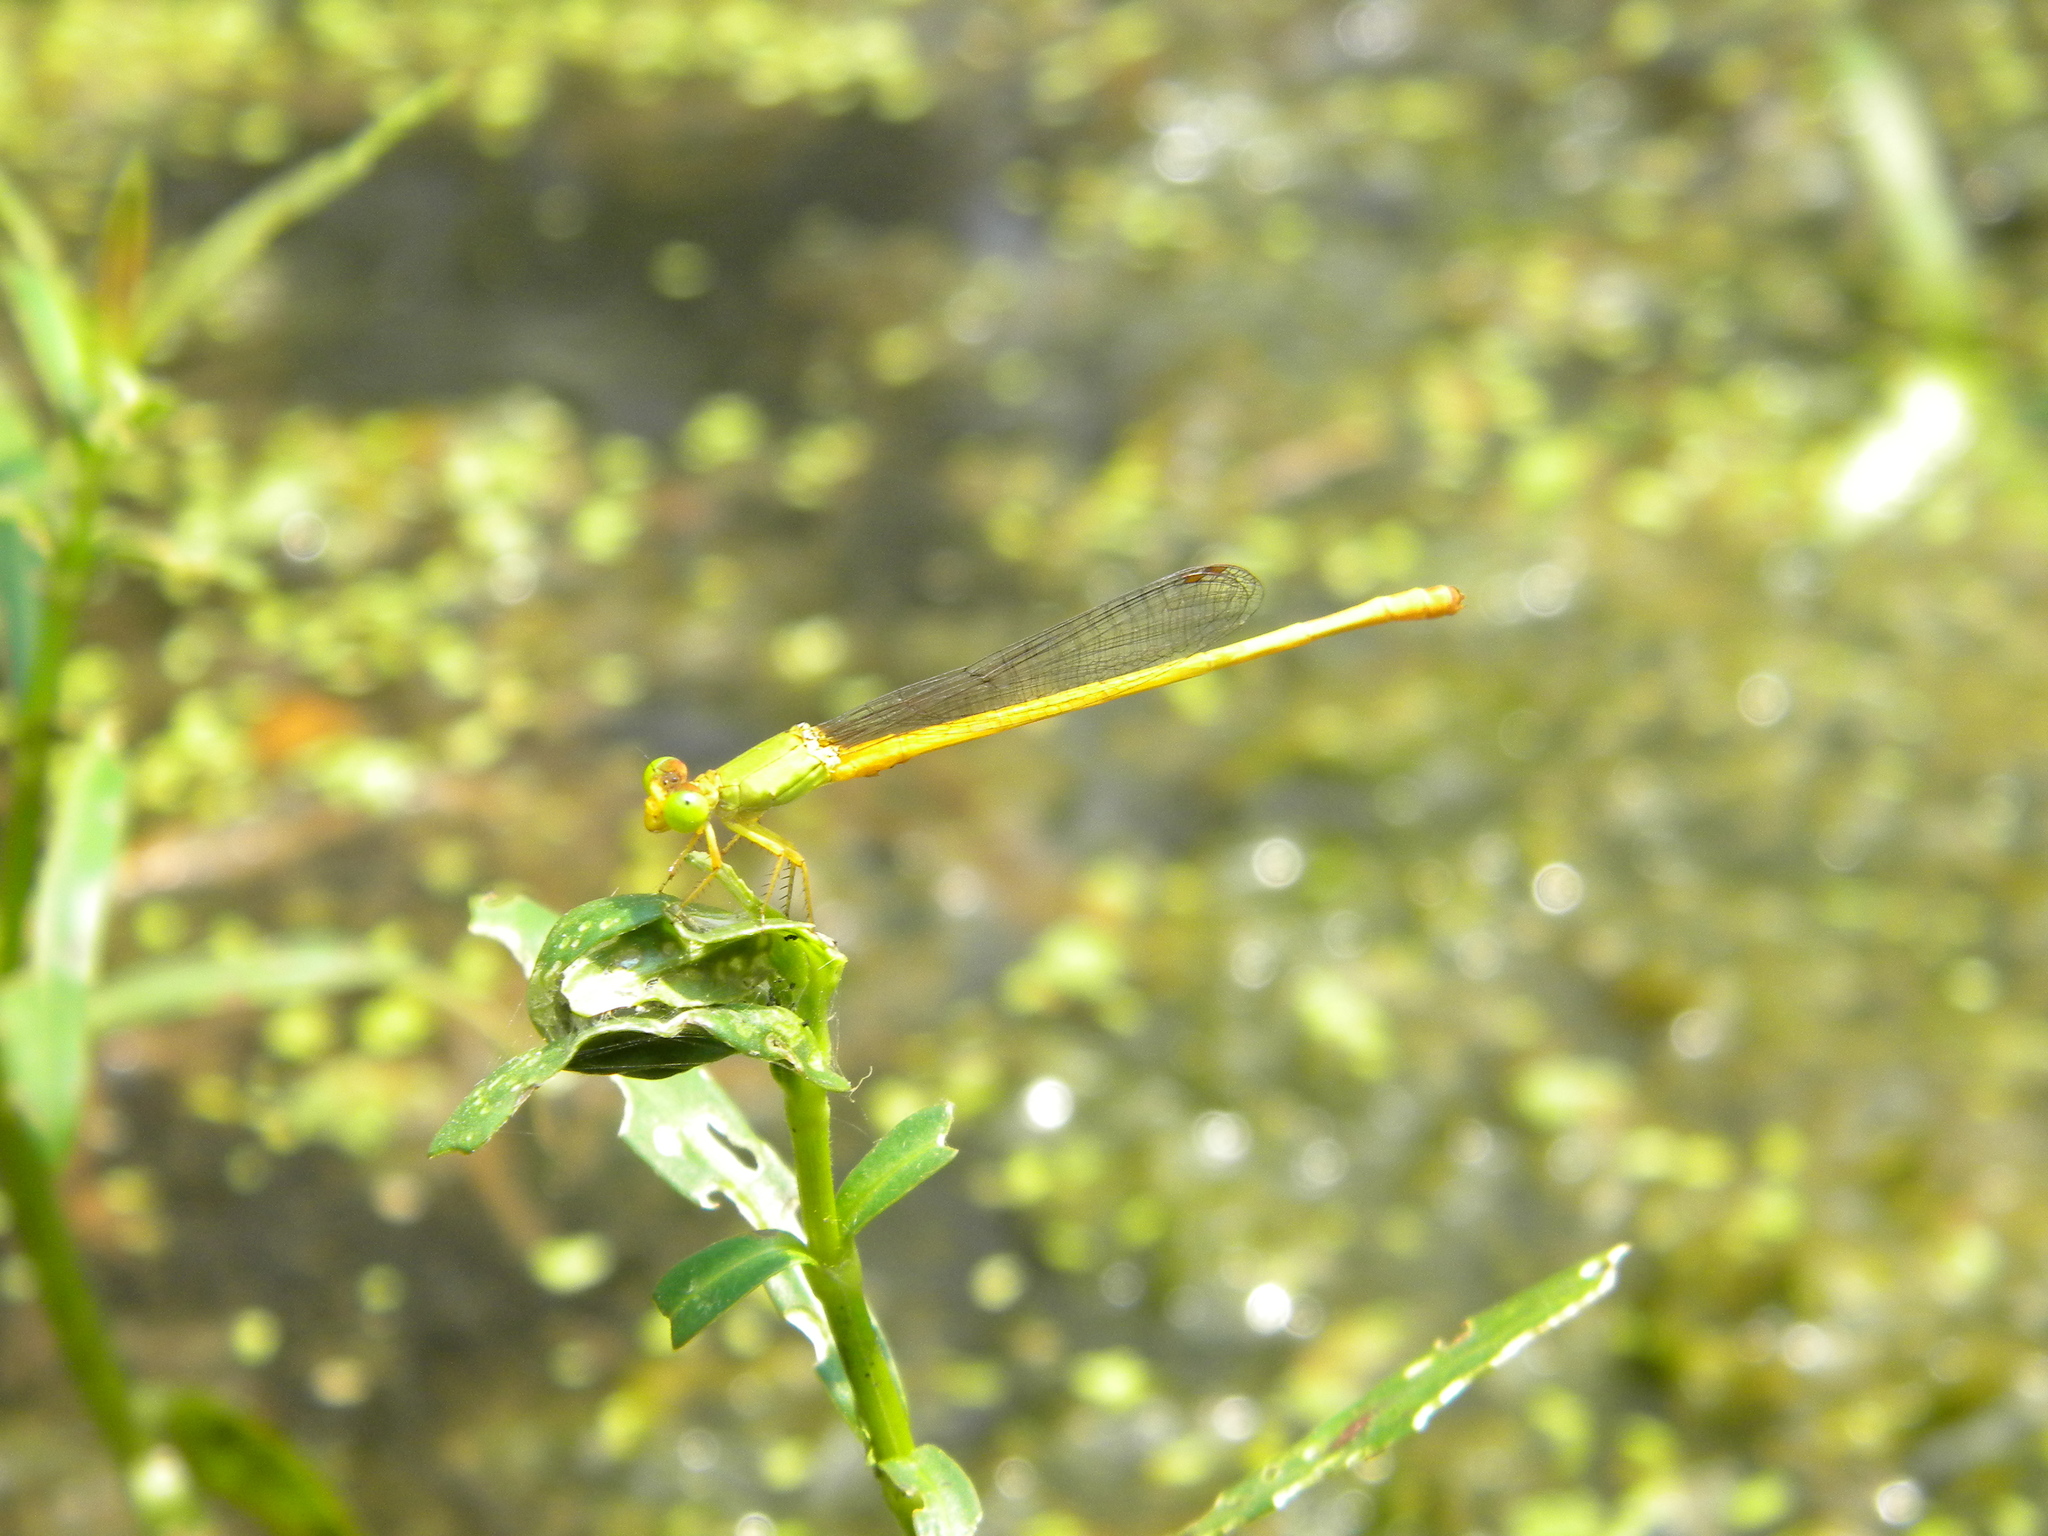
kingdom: Animalia
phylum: Arthropoda
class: Insecta
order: Odonata
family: Coenagrionidae
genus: Ceriagrion
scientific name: Ceriagrion coromandelianum
